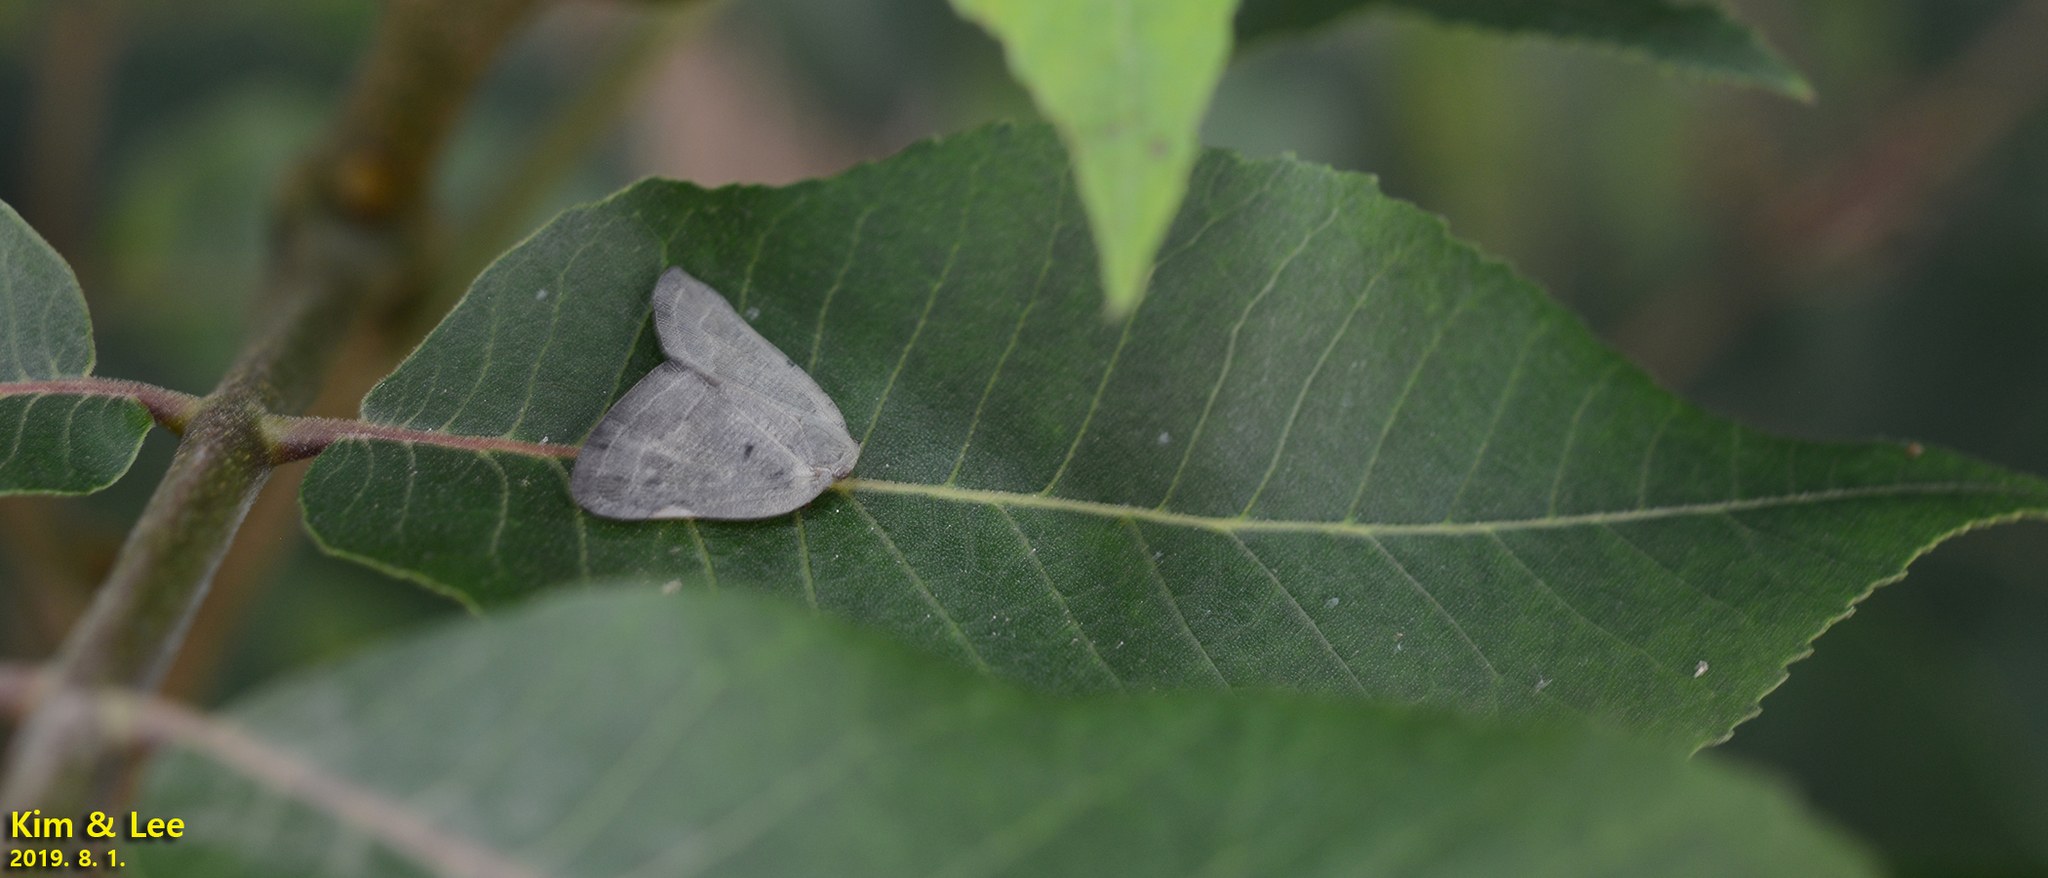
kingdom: Animalia
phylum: Arthropoda
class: Insecta
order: Hemiptera
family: Ricaniidae
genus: Ricanula
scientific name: Ricanula sublimata
